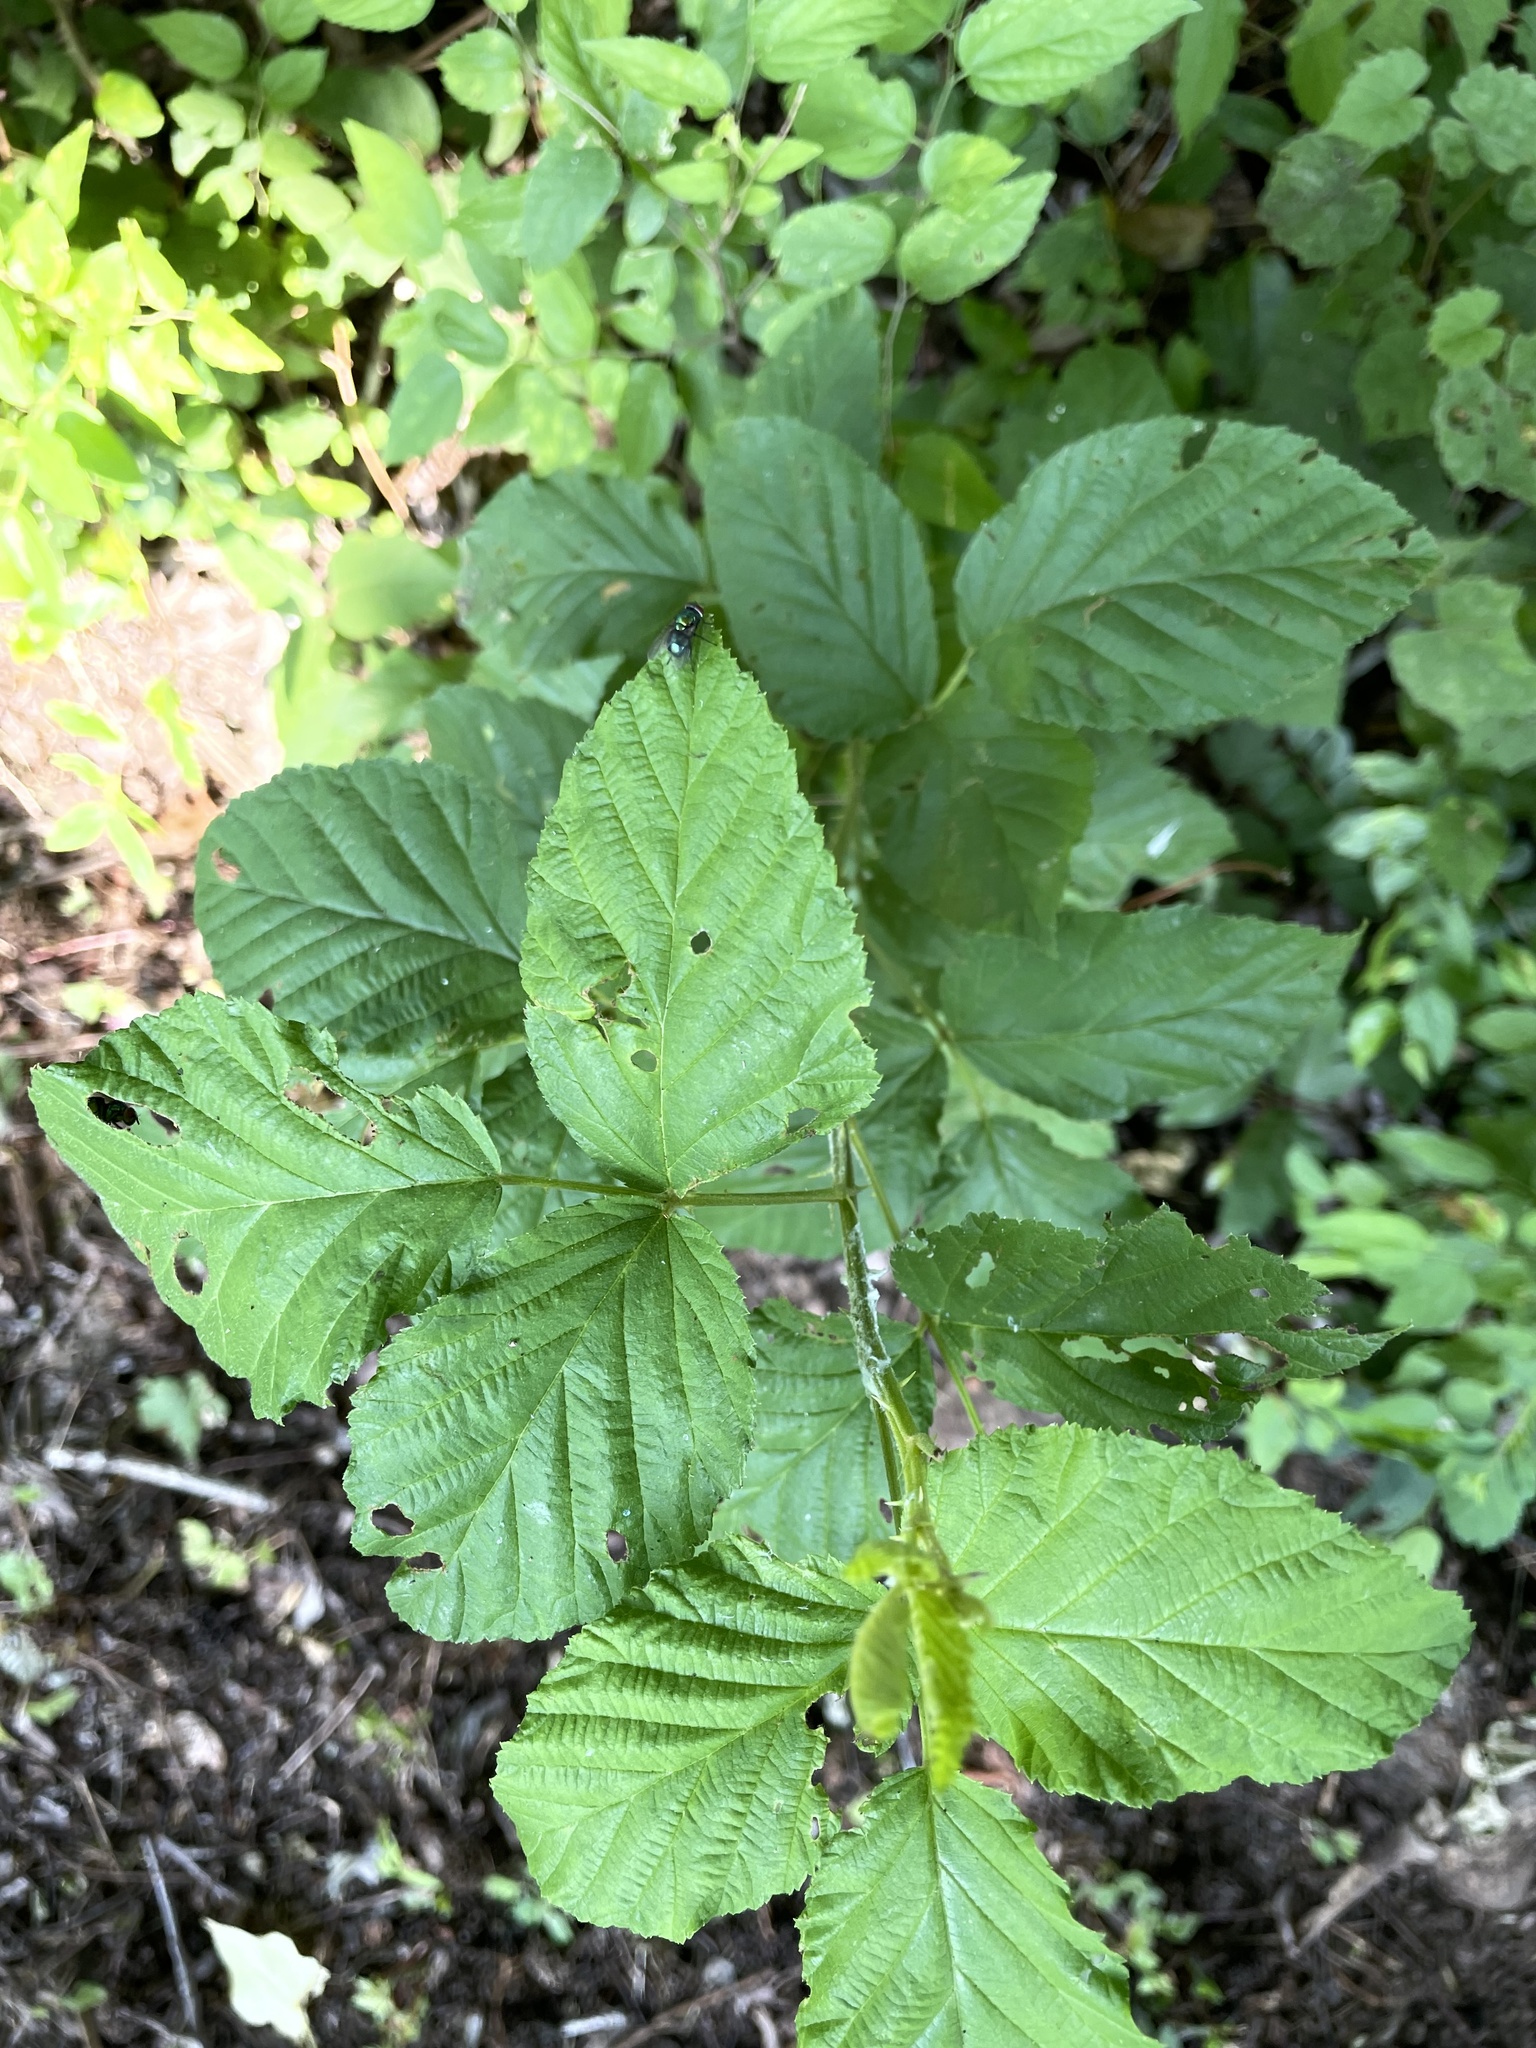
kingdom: Plantae
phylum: Tracheophyta
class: Magnoliopsida
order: Rosales
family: Rosaceae
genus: Rubus
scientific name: Rubus pensilvanicus
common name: Pennsylvania blackberry
